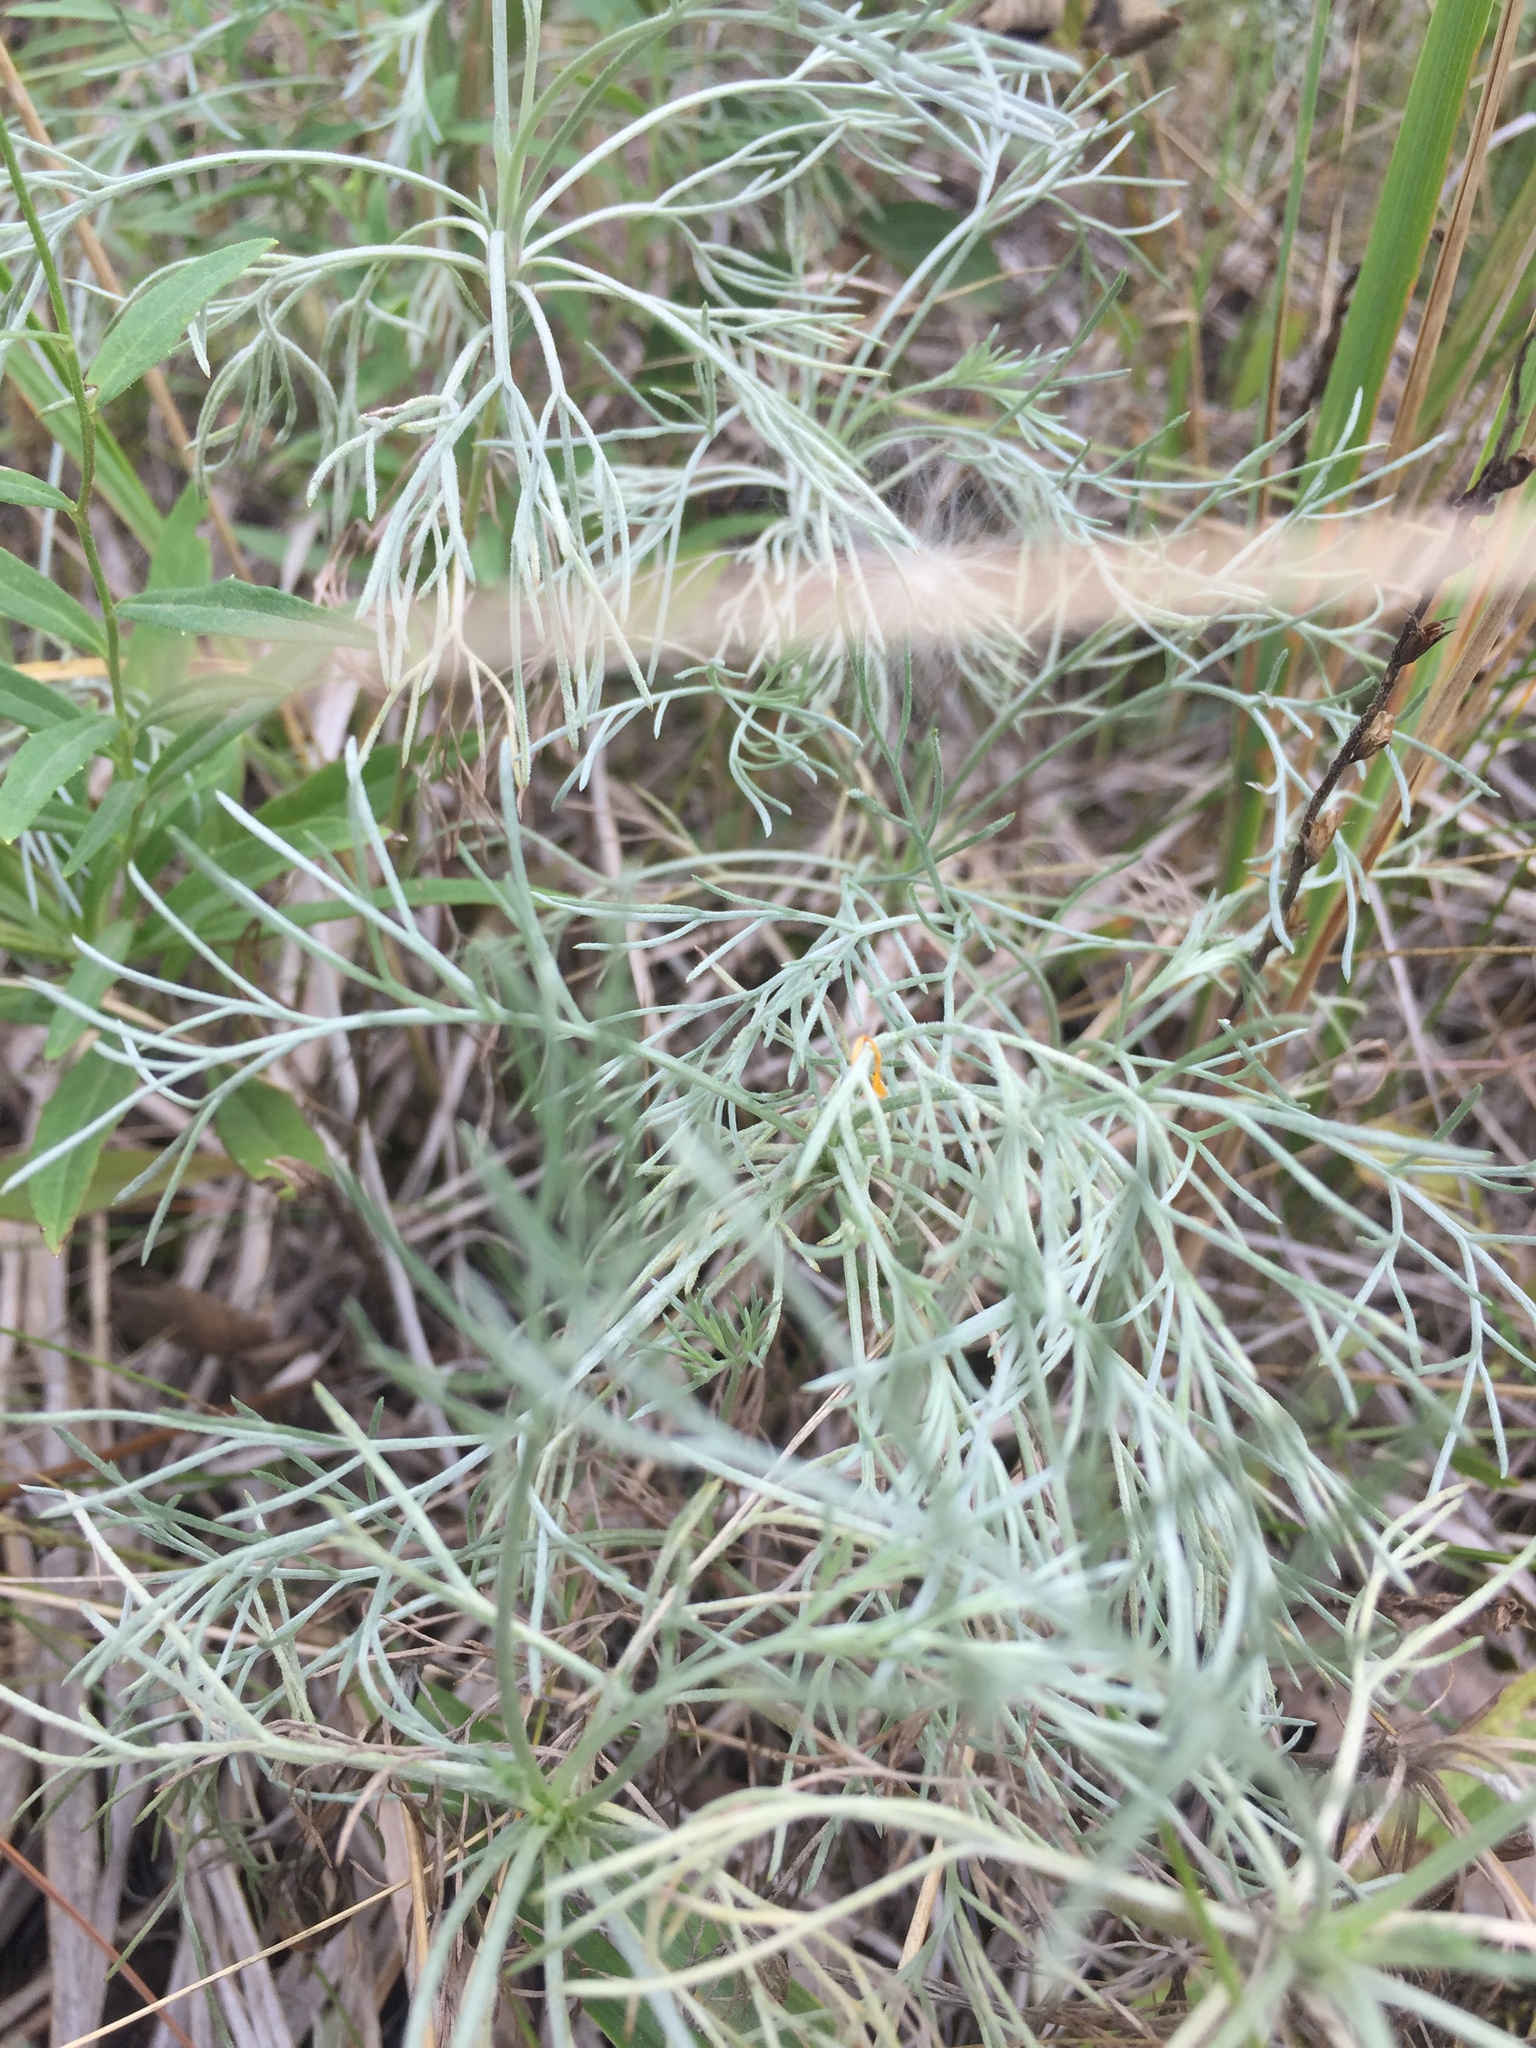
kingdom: Plantae
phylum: Tracheophyta
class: Magnoliopsida
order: Asterales
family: Asteraceae
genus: Artemisia
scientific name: Artemisia campestris
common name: Field wormwood
